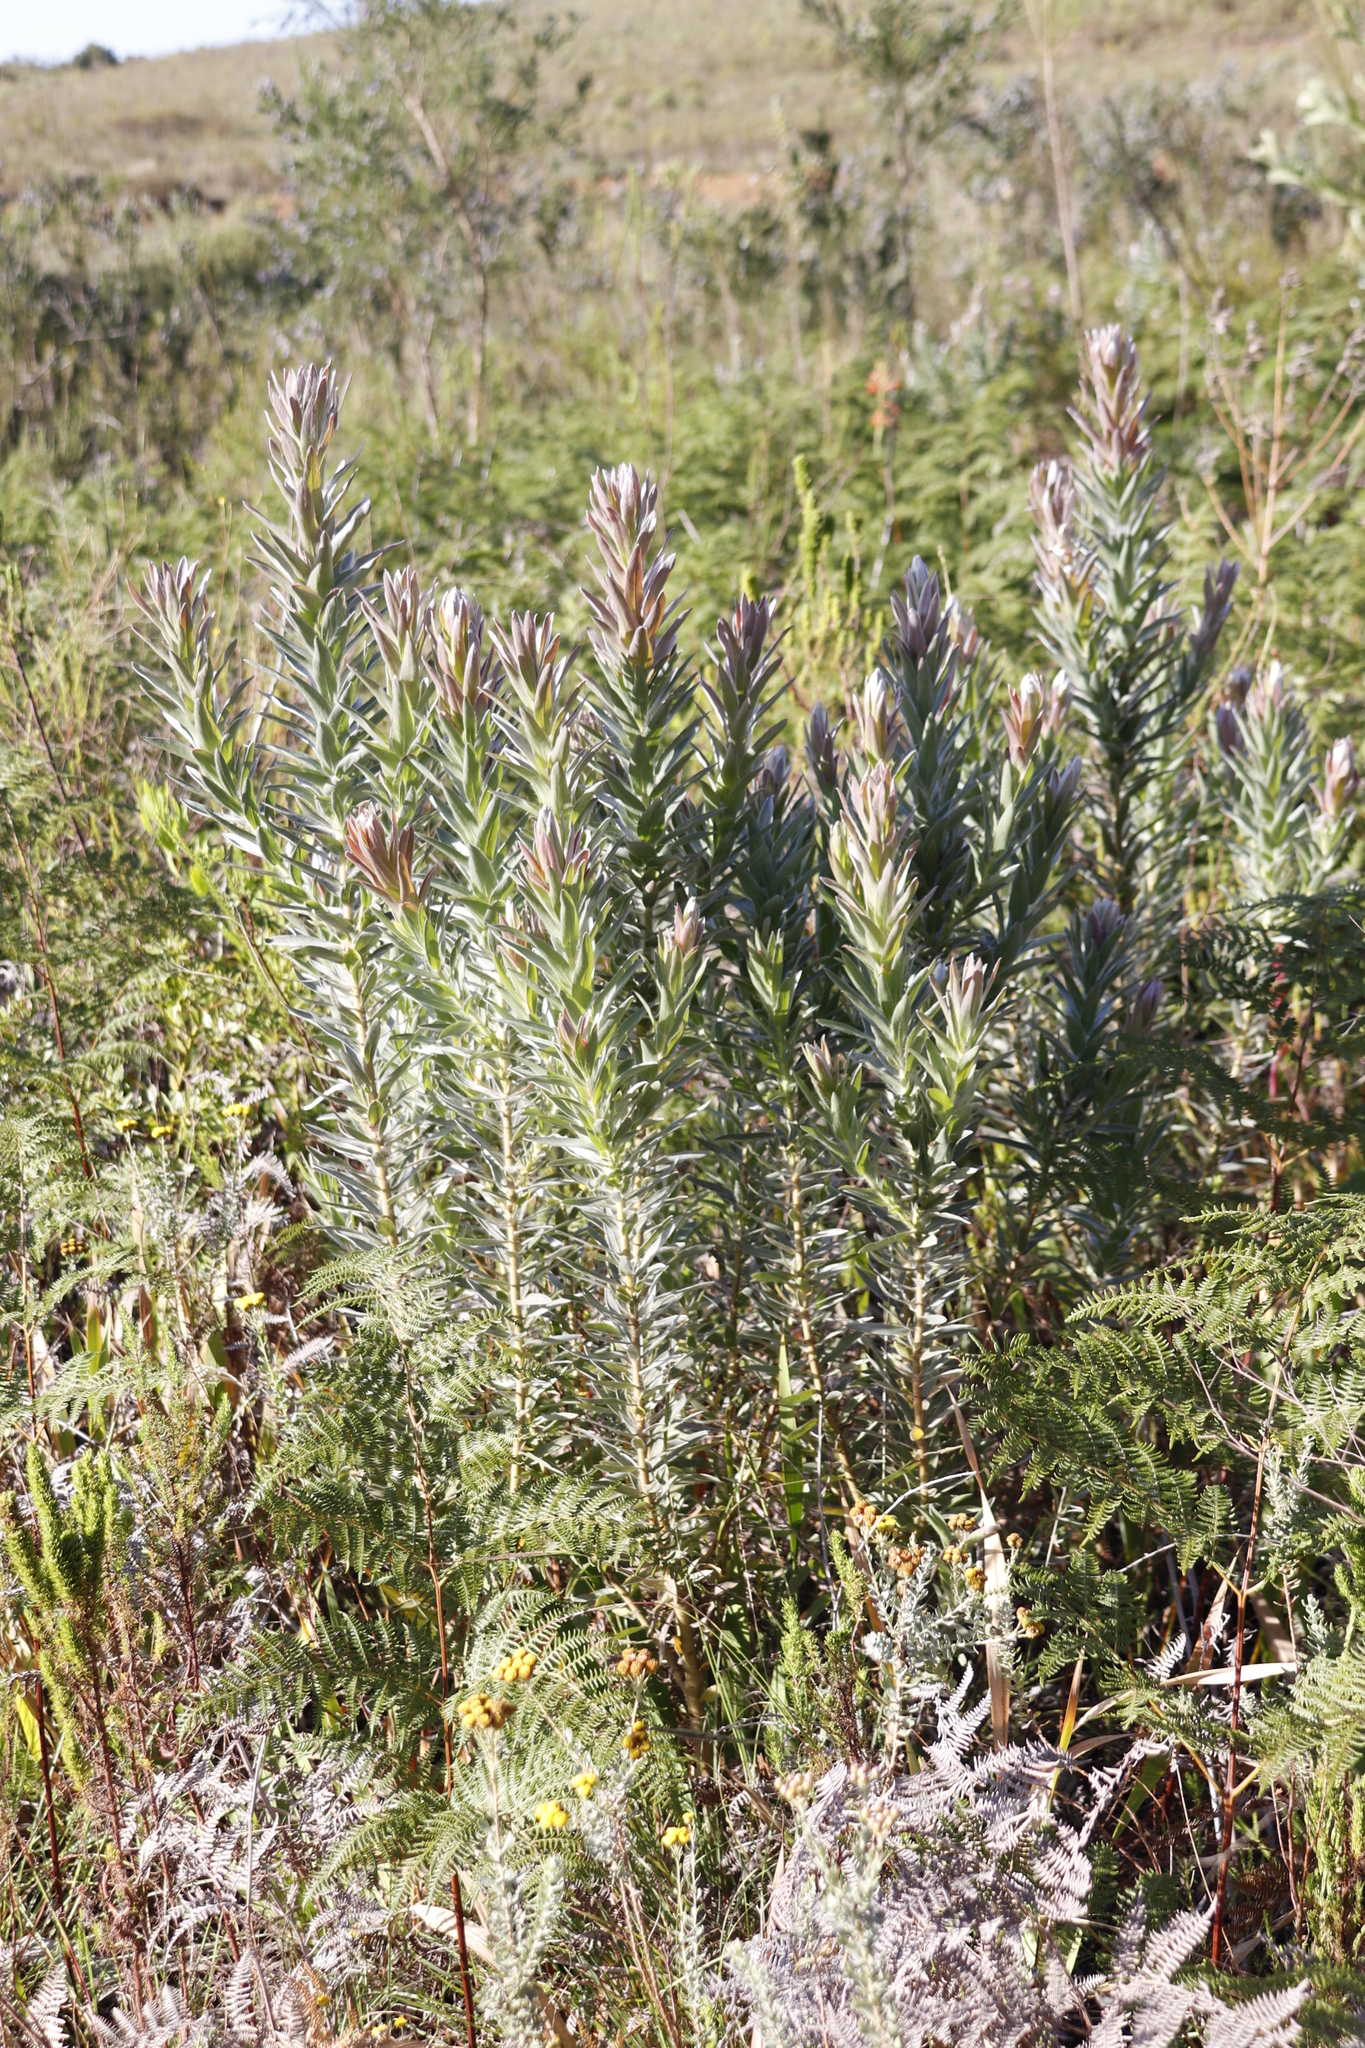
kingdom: Plantae
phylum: Tracheophyta
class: Magnoliopsida
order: Proteales
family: Proteaceae
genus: Protea
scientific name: Protea coronata
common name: Green sugarbush
